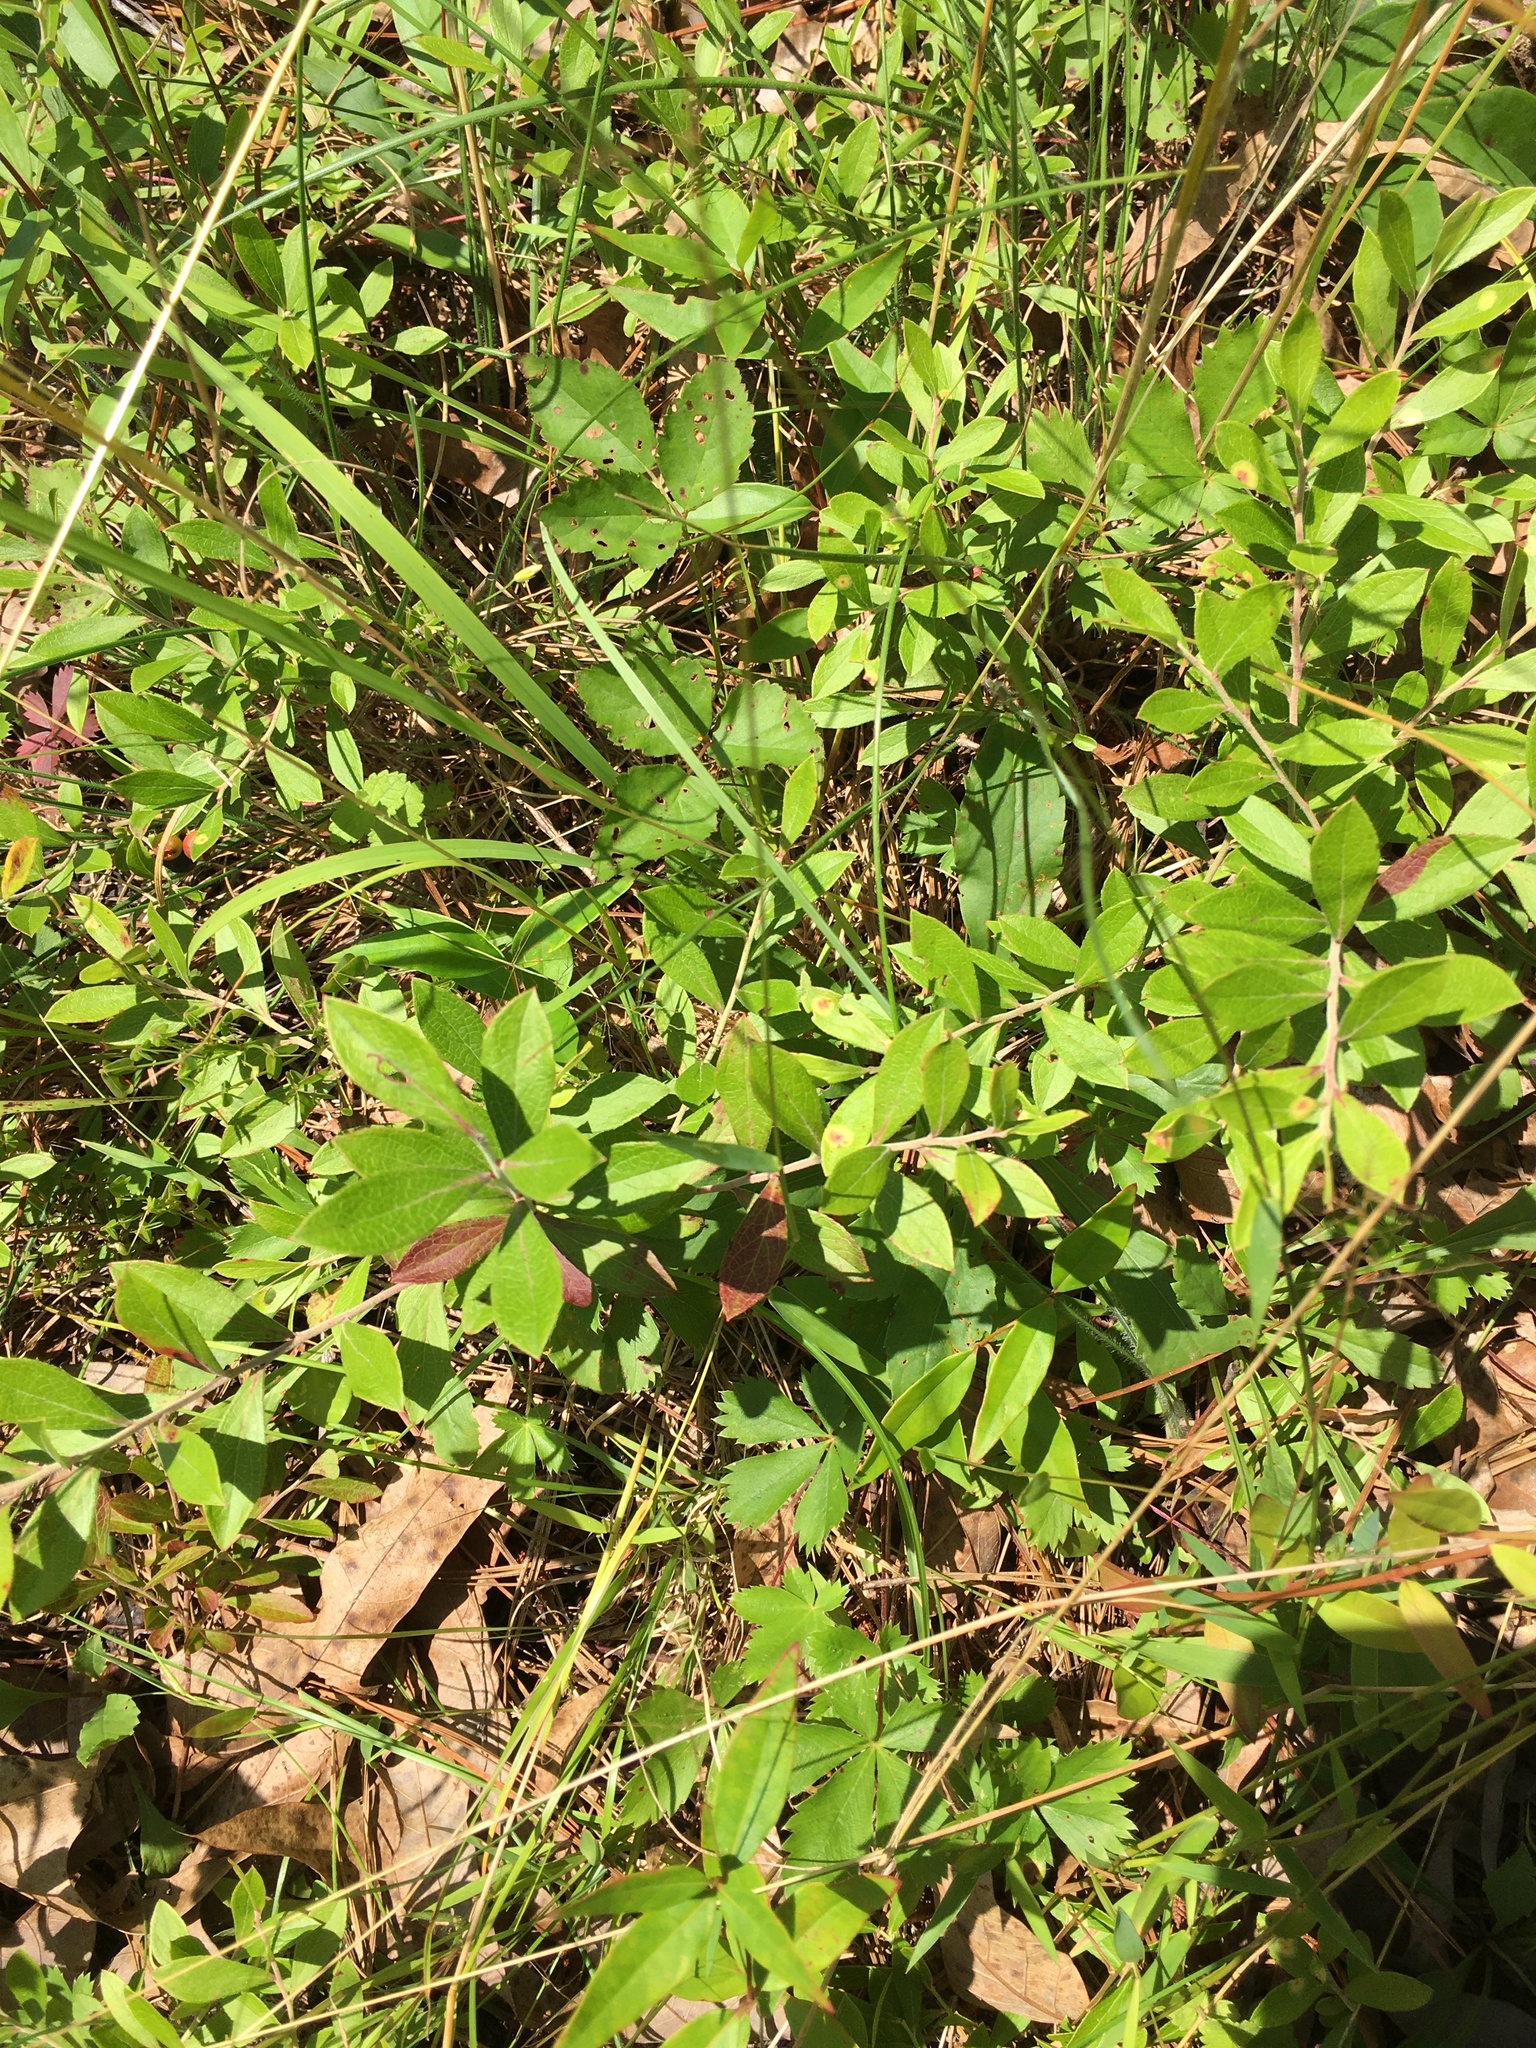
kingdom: Plantae
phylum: Tracheophyta
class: Magnoliopsida
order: Ericales
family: Ericaceae
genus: Vaccinium
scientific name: Vaccinium tenellum
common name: Southern blueberry
